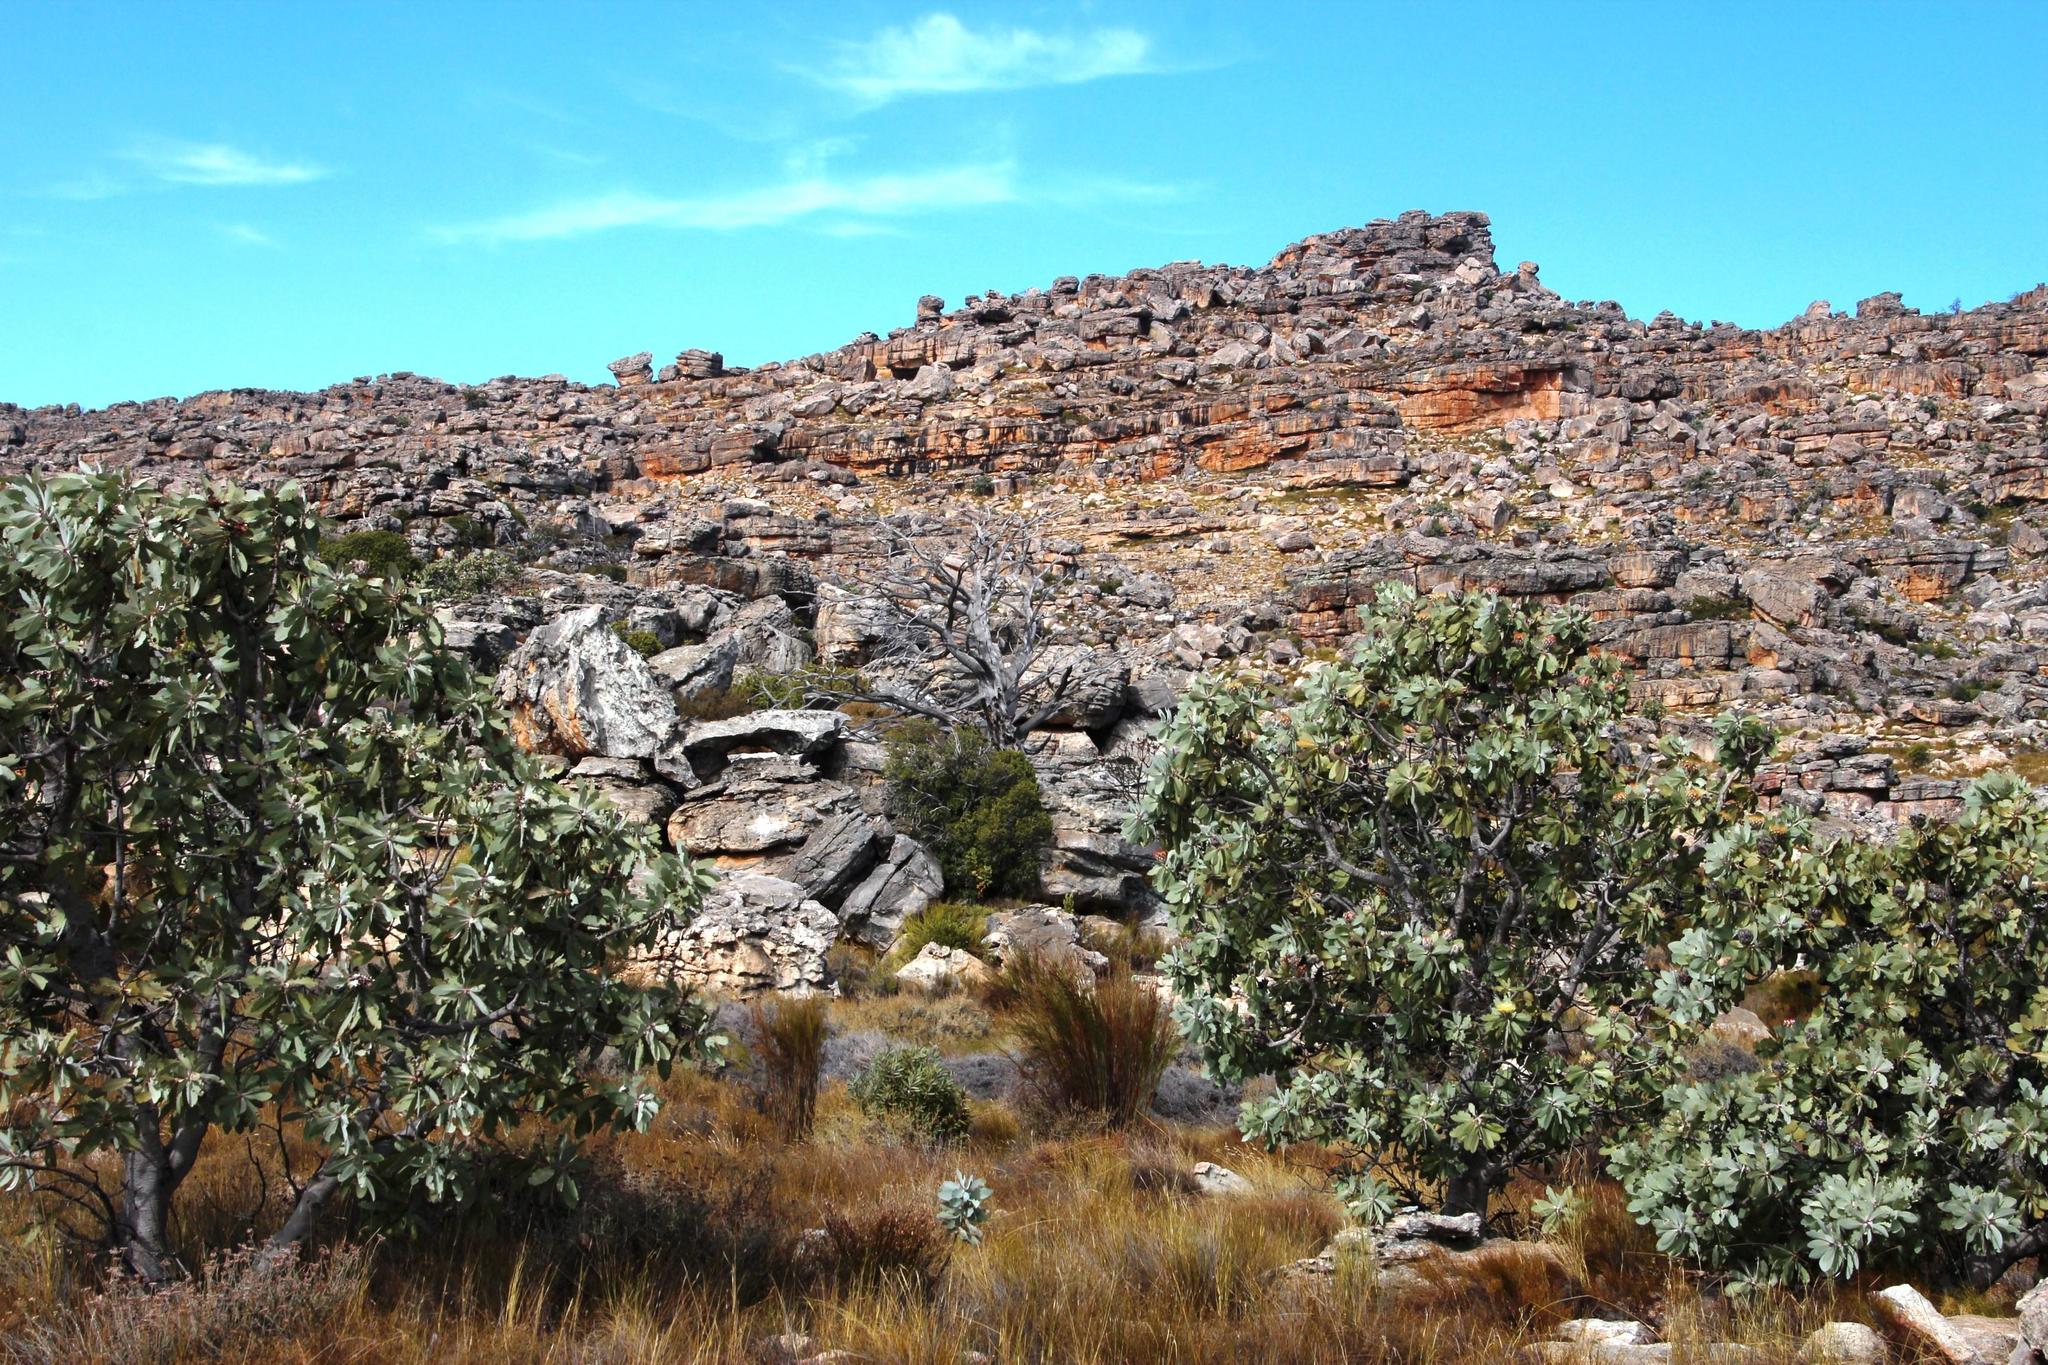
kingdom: Plantae
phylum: Tracheophyta
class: Pinopsida
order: Pinales
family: Cupressaceae
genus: Widdringtonia
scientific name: Widdringtonia nodiflora
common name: Cape cypress
